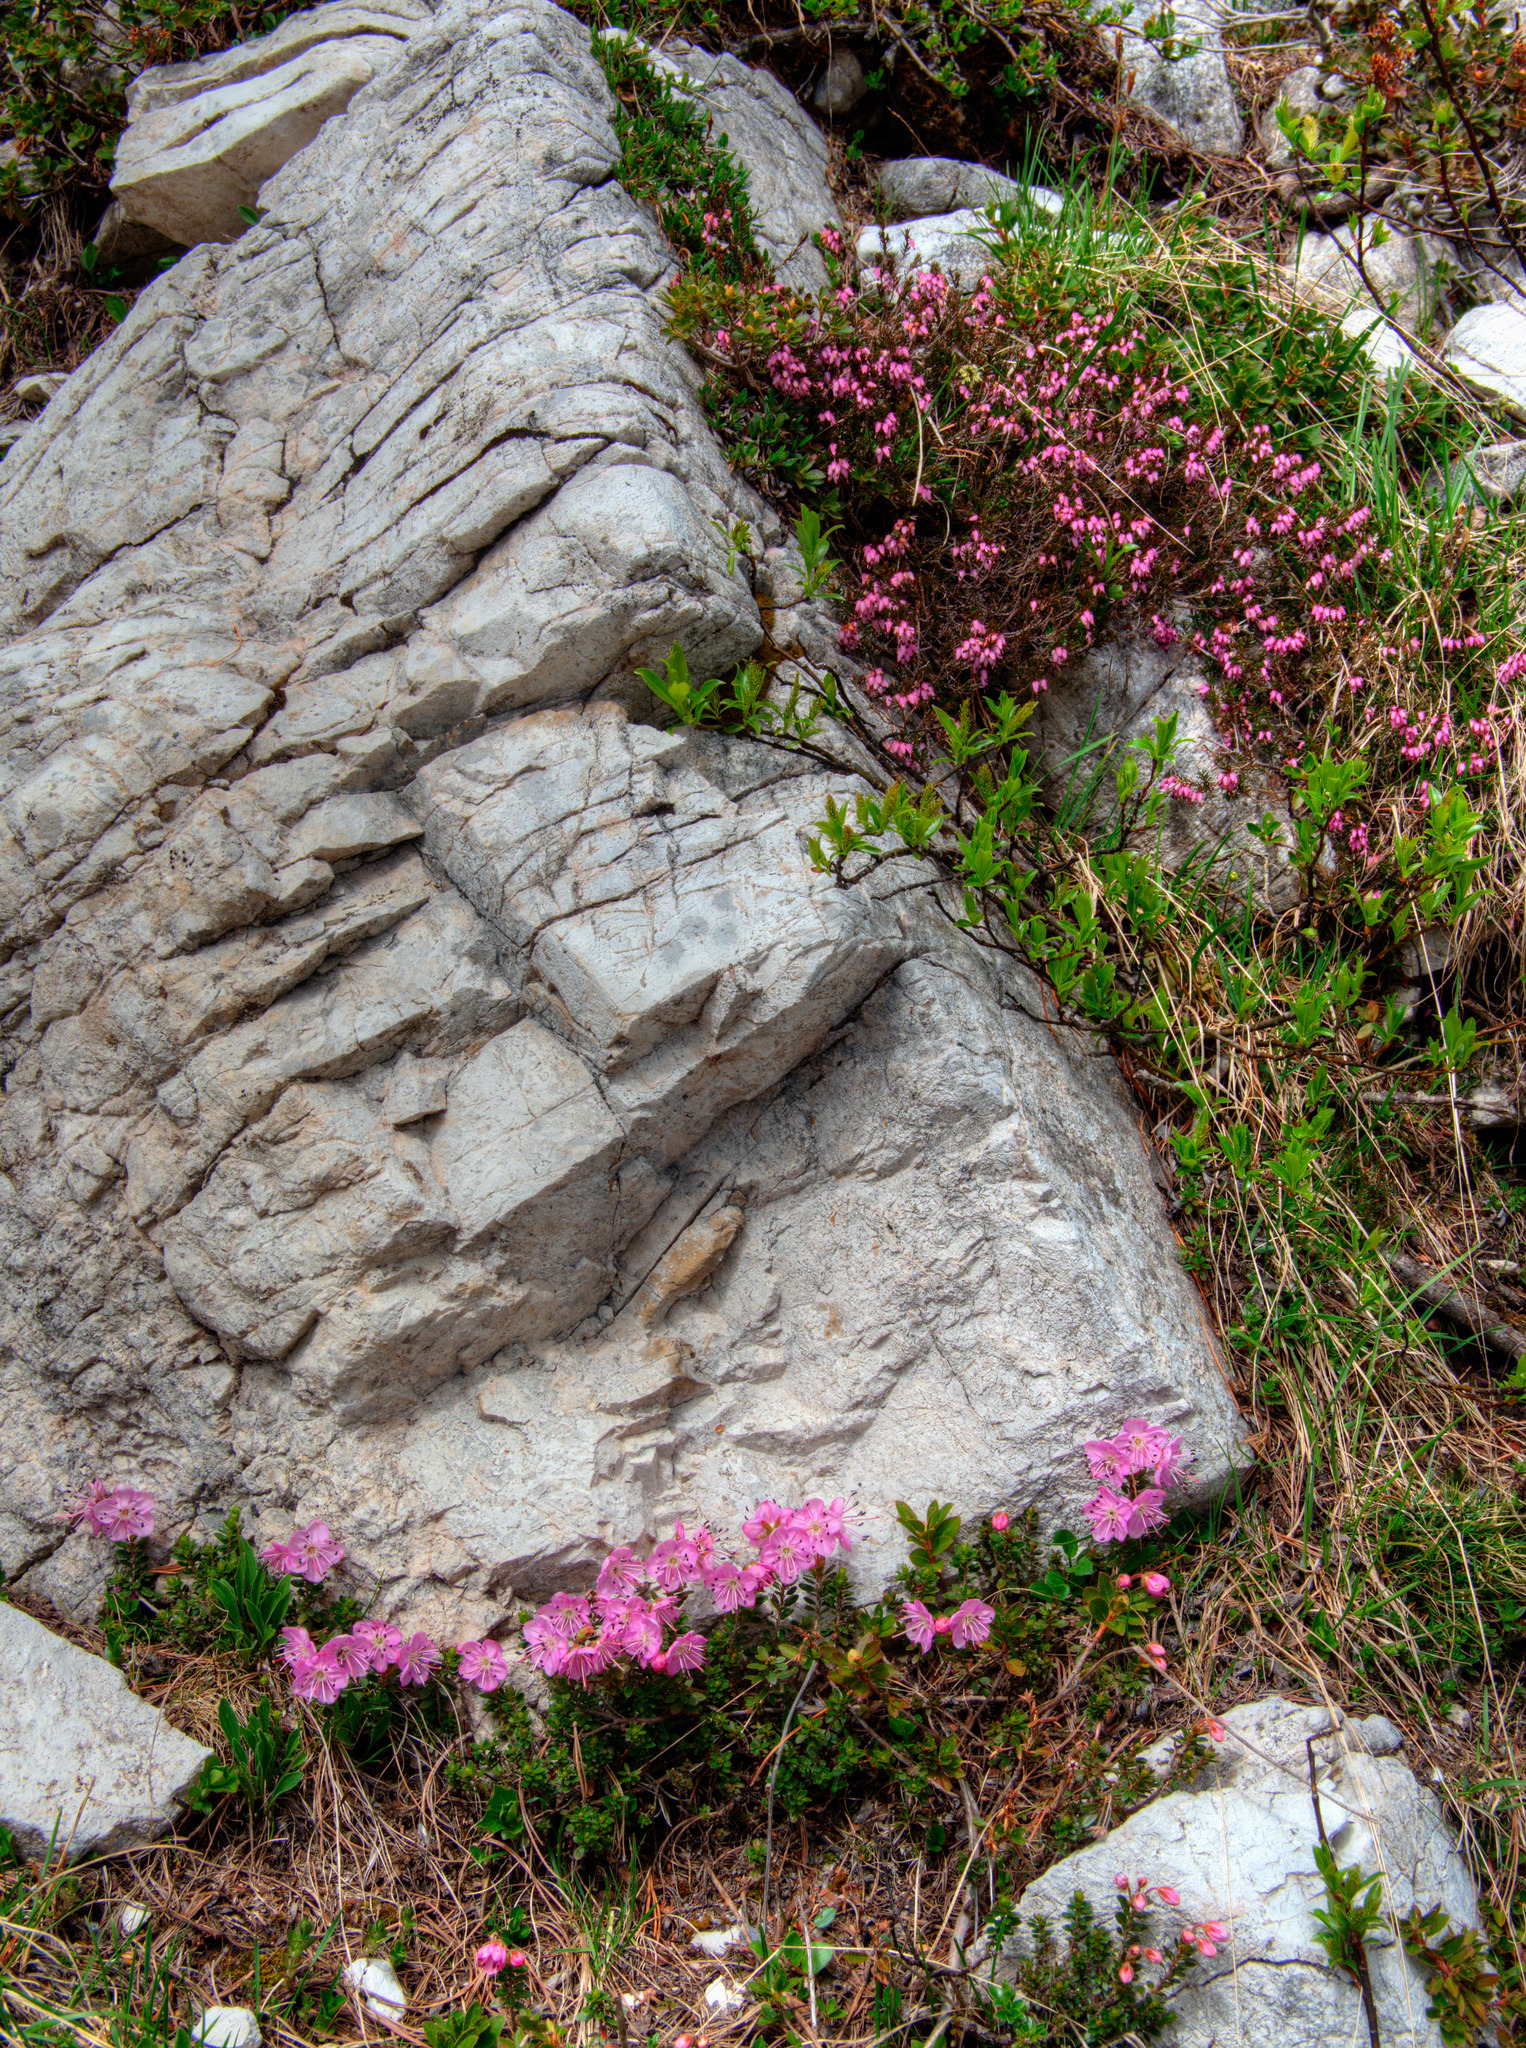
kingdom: Plantae
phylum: Tracheophyta
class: Magnoliopsida
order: Ericales
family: Ericaceae
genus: Erica
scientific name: Erica carnea
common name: Winter heath
